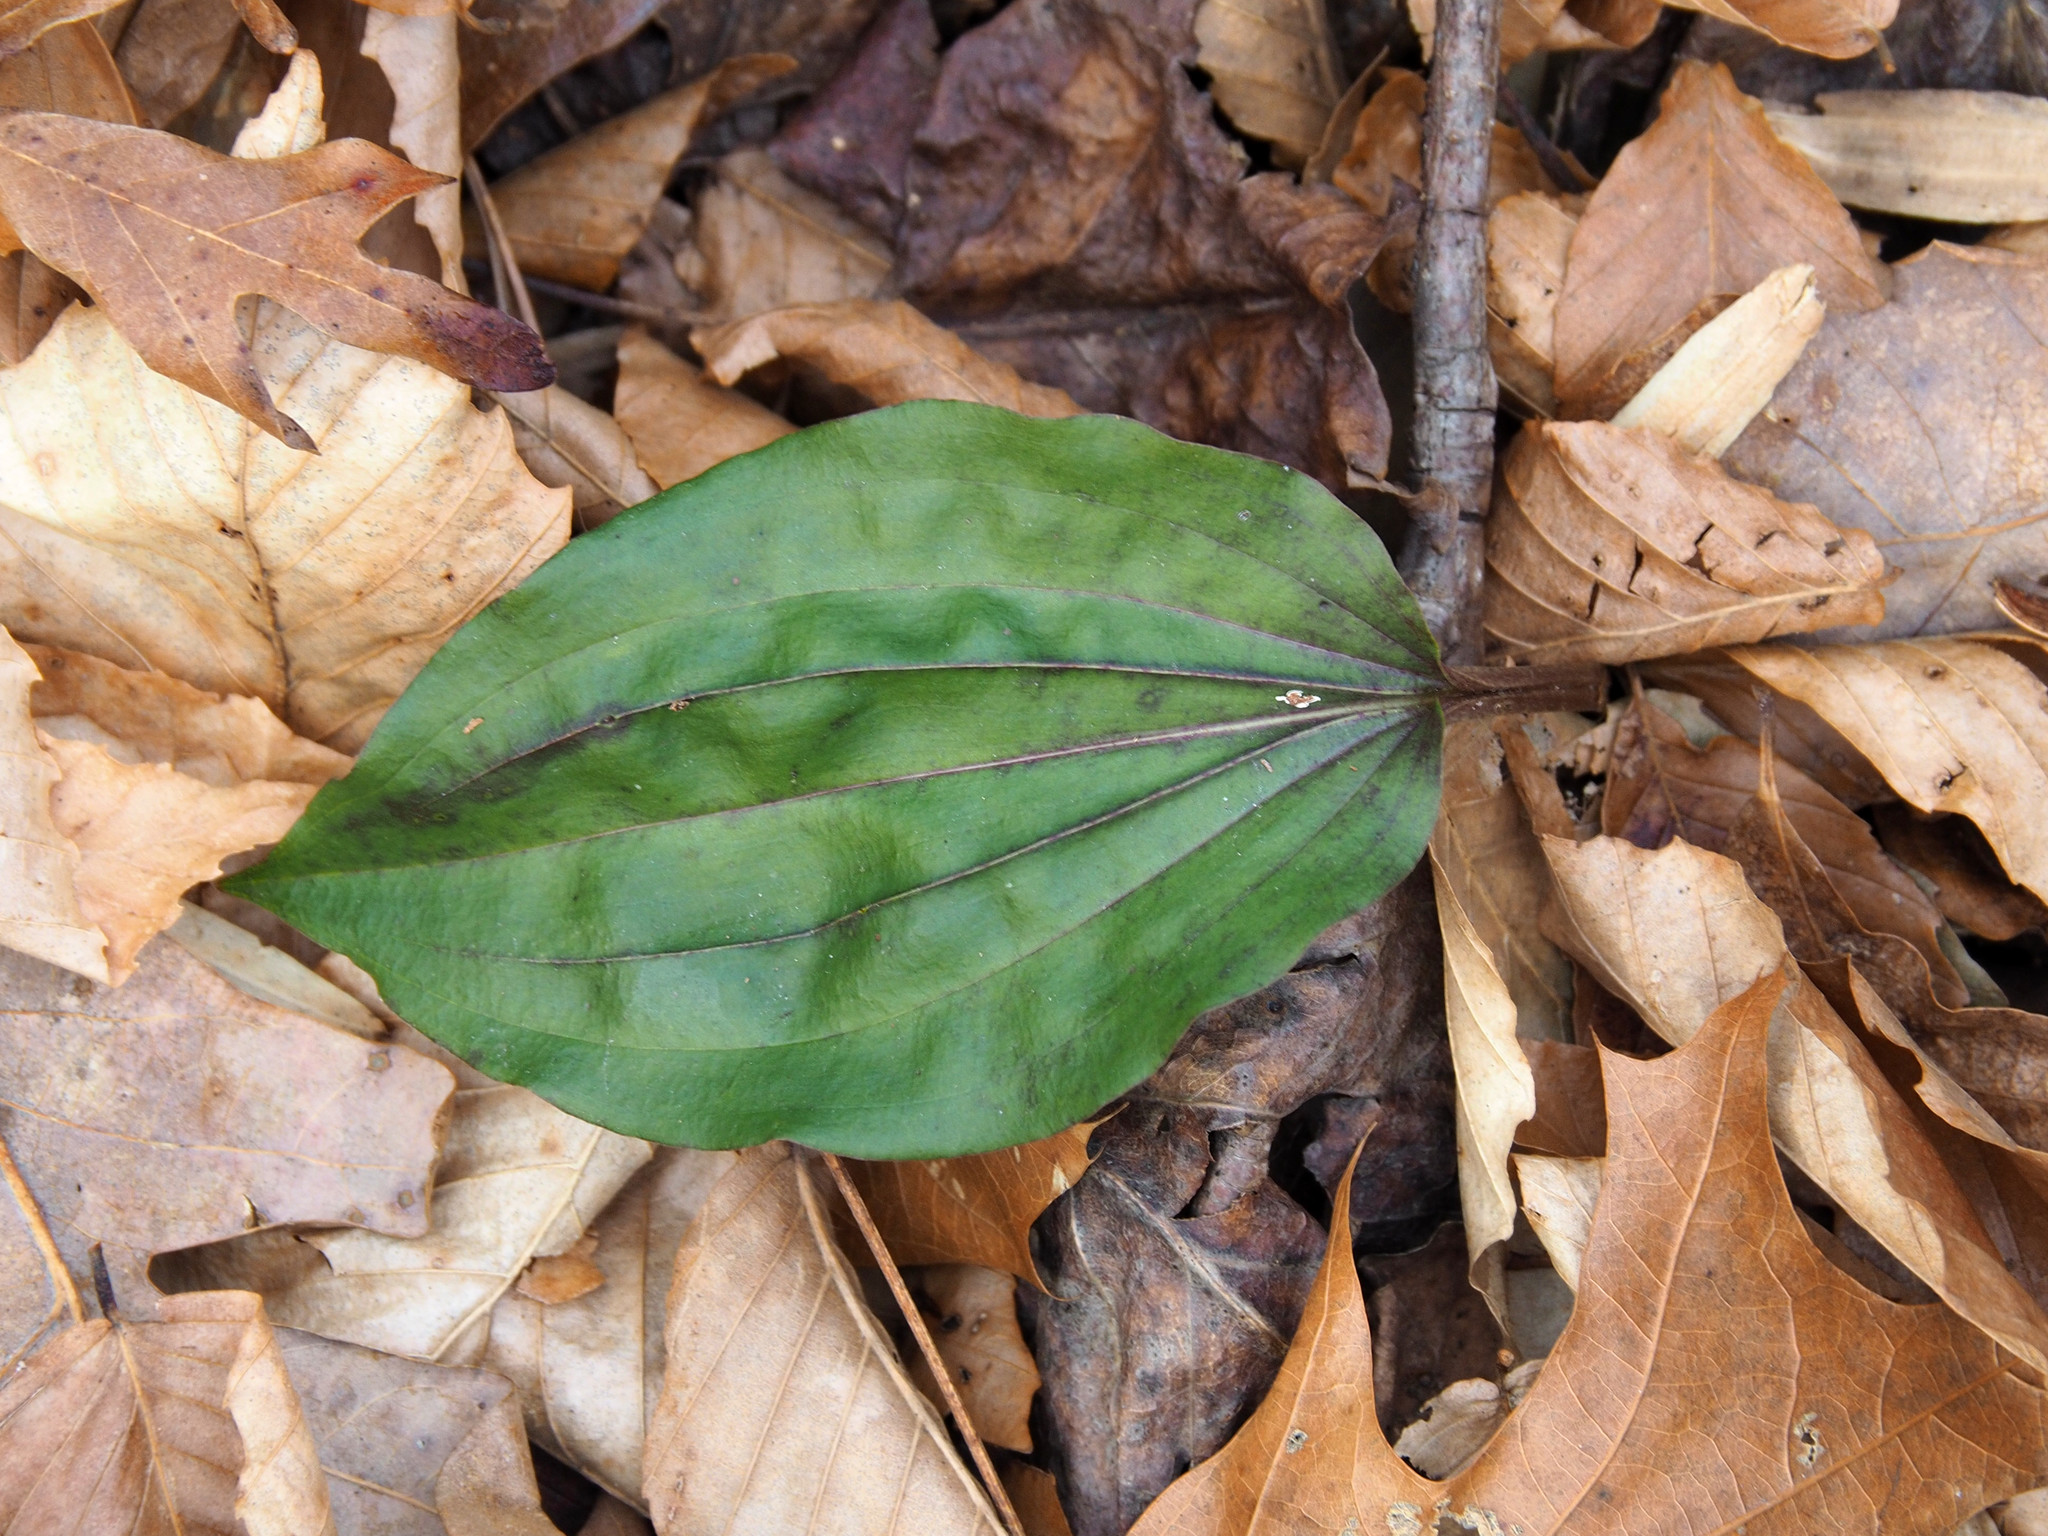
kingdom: Plantae
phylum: Tracheophyta
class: Liliopsida
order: Asparagales
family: Orchidaceae
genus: Tipularia
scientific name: Tipularia discolor
